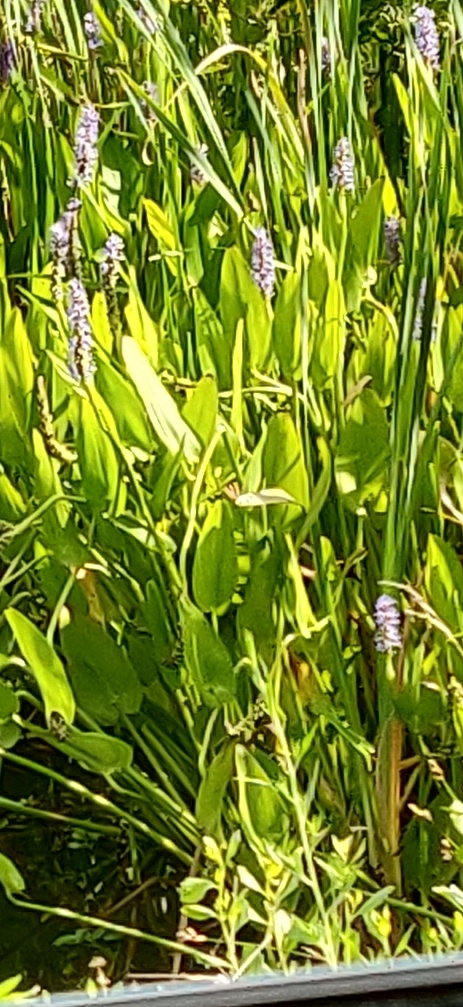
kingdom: Plantae
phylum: Tracheophyta
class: Liliopsida
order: Commelinales
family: Pontederiaceae
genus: Pontederia
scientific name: Pontederia cordata
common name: Pickerelweed
